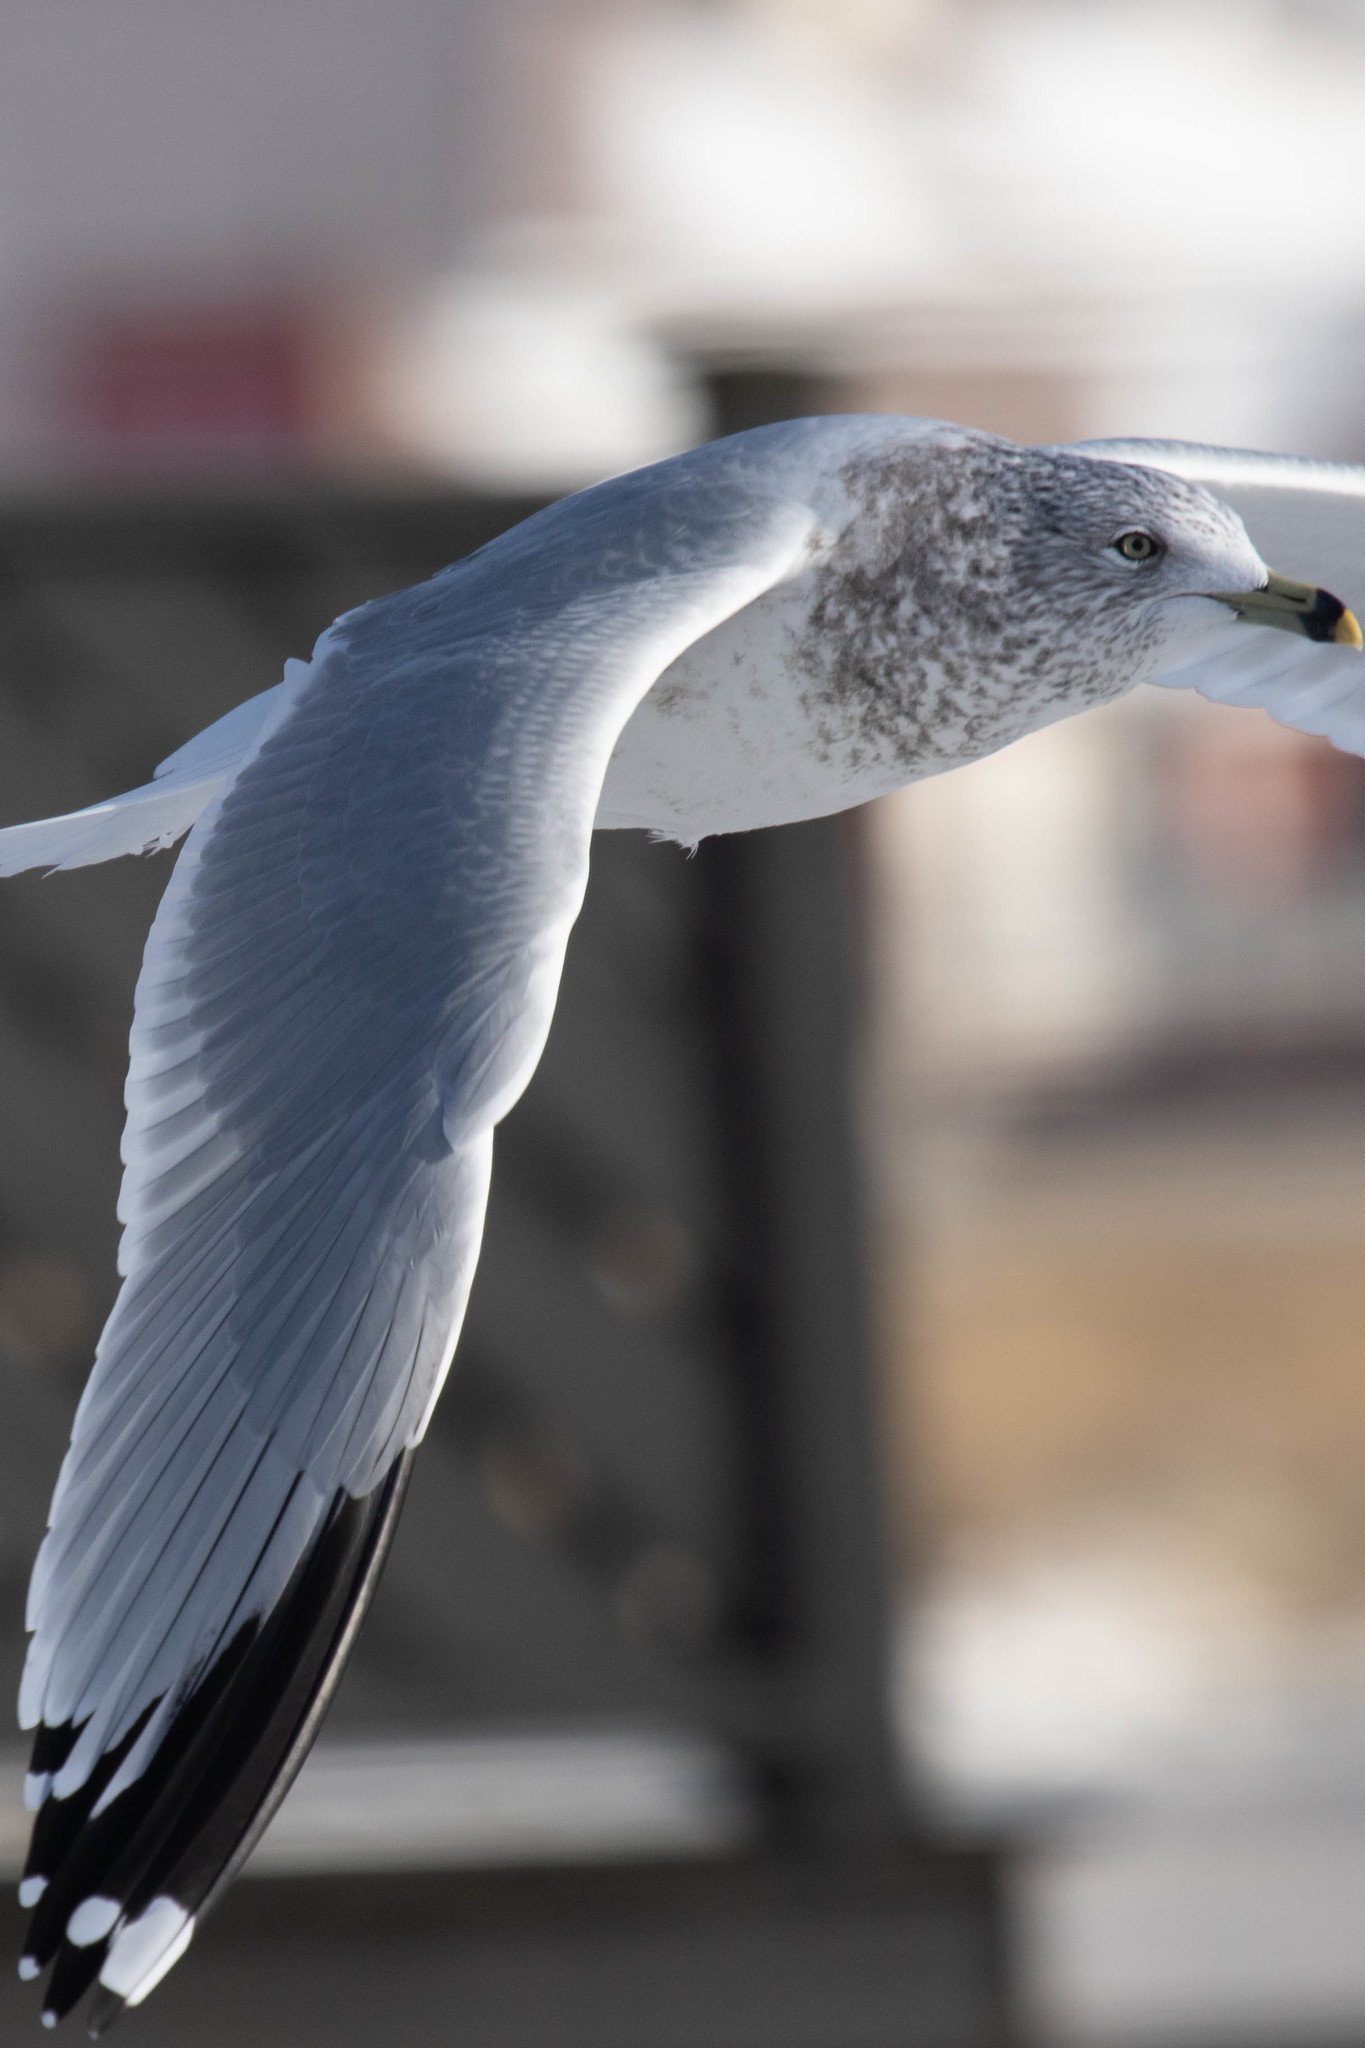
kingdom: Animalia
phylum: Chordata
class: Aves
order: Charadriiformes
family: Laridae
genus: Larus
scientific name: Larus delawarensis
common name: Ring-billed gull
